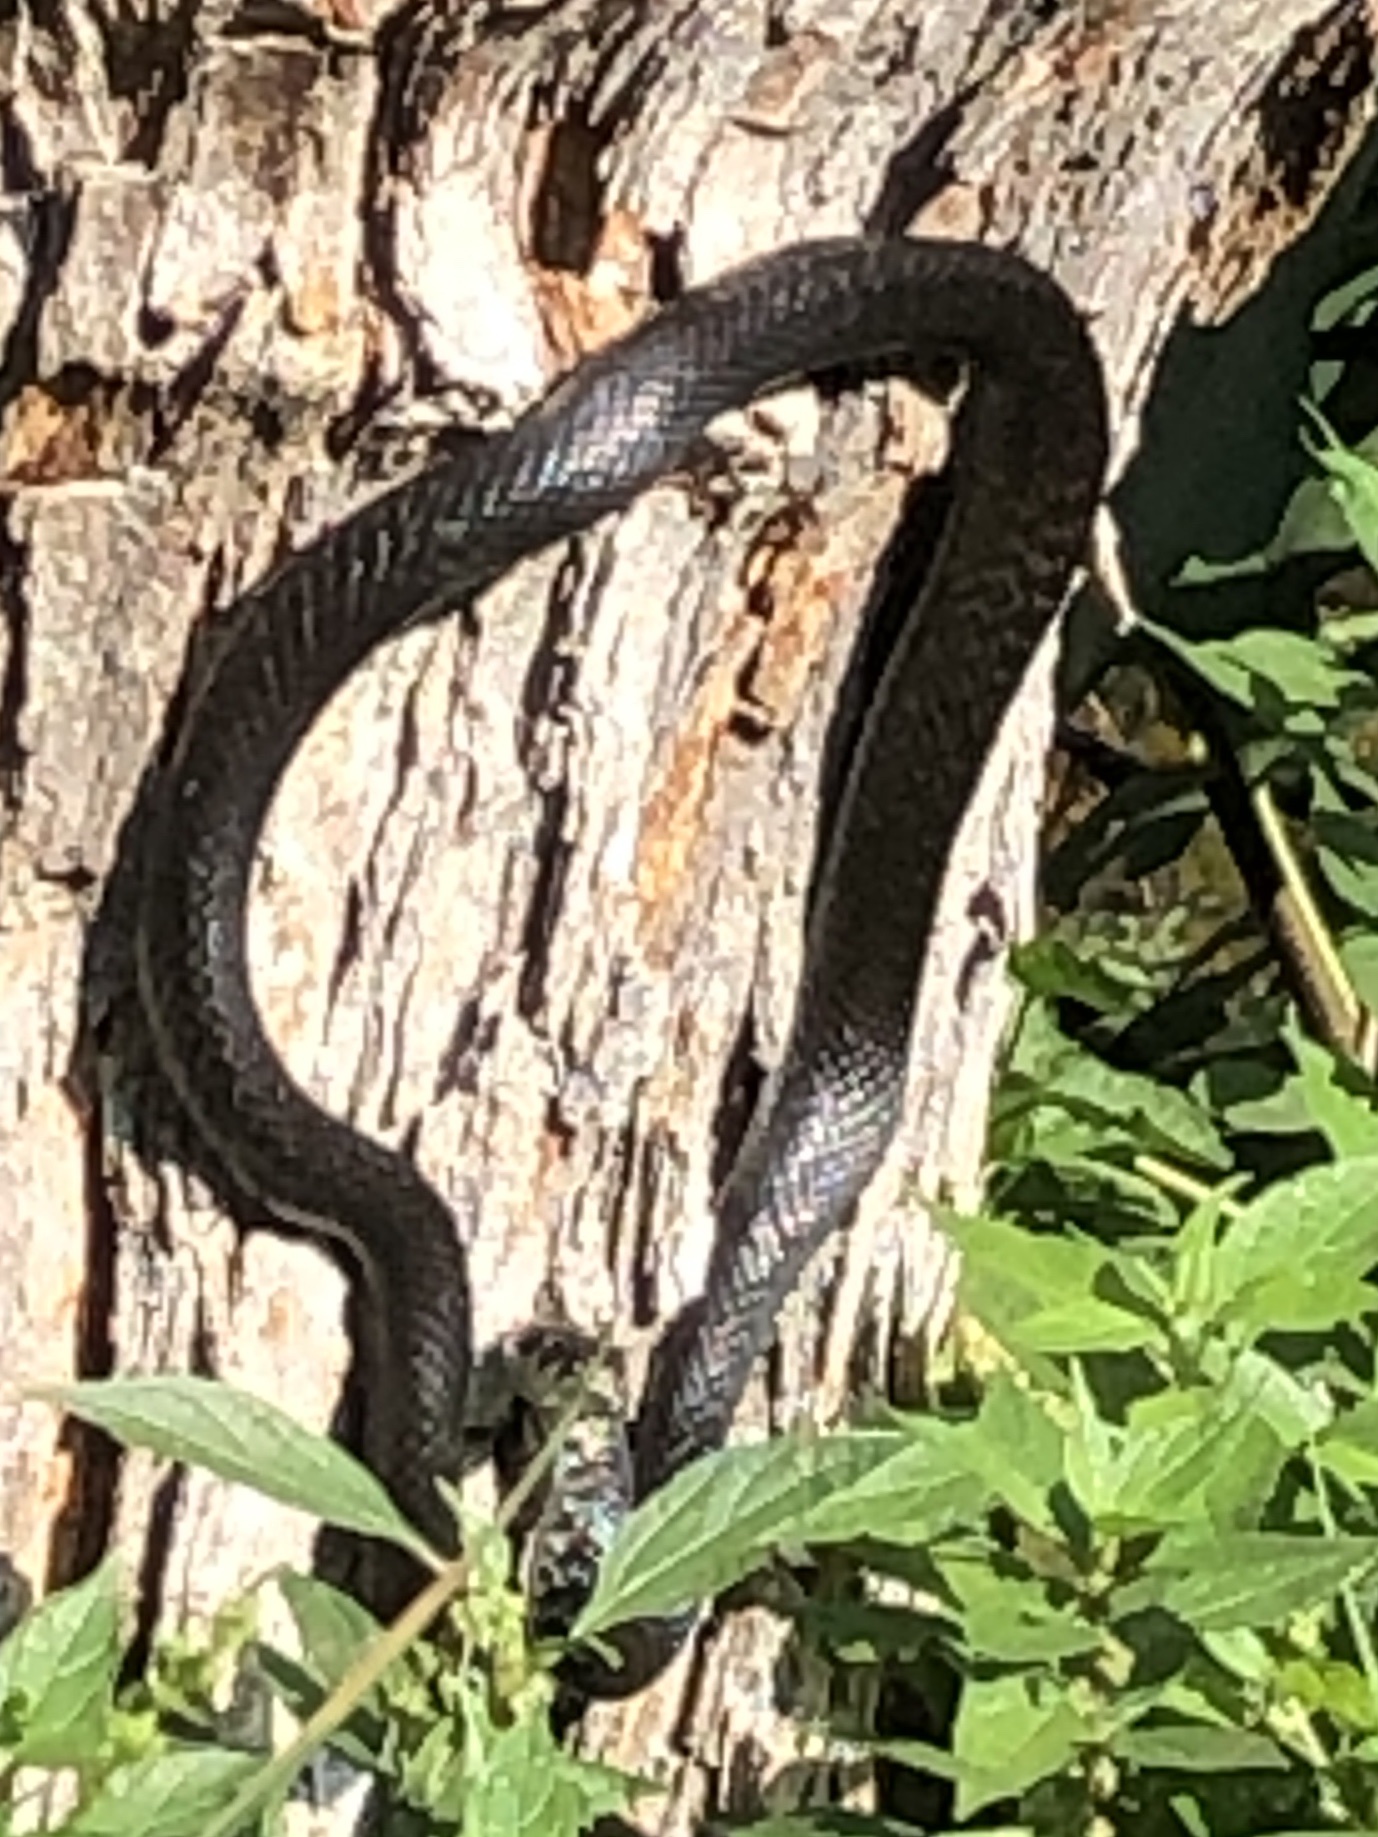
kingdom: Animalia
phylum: Chordata
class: Squamata
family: Colubridae
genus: Hierophis
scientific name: Hierophis viridiflavus
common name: Green whip snake
